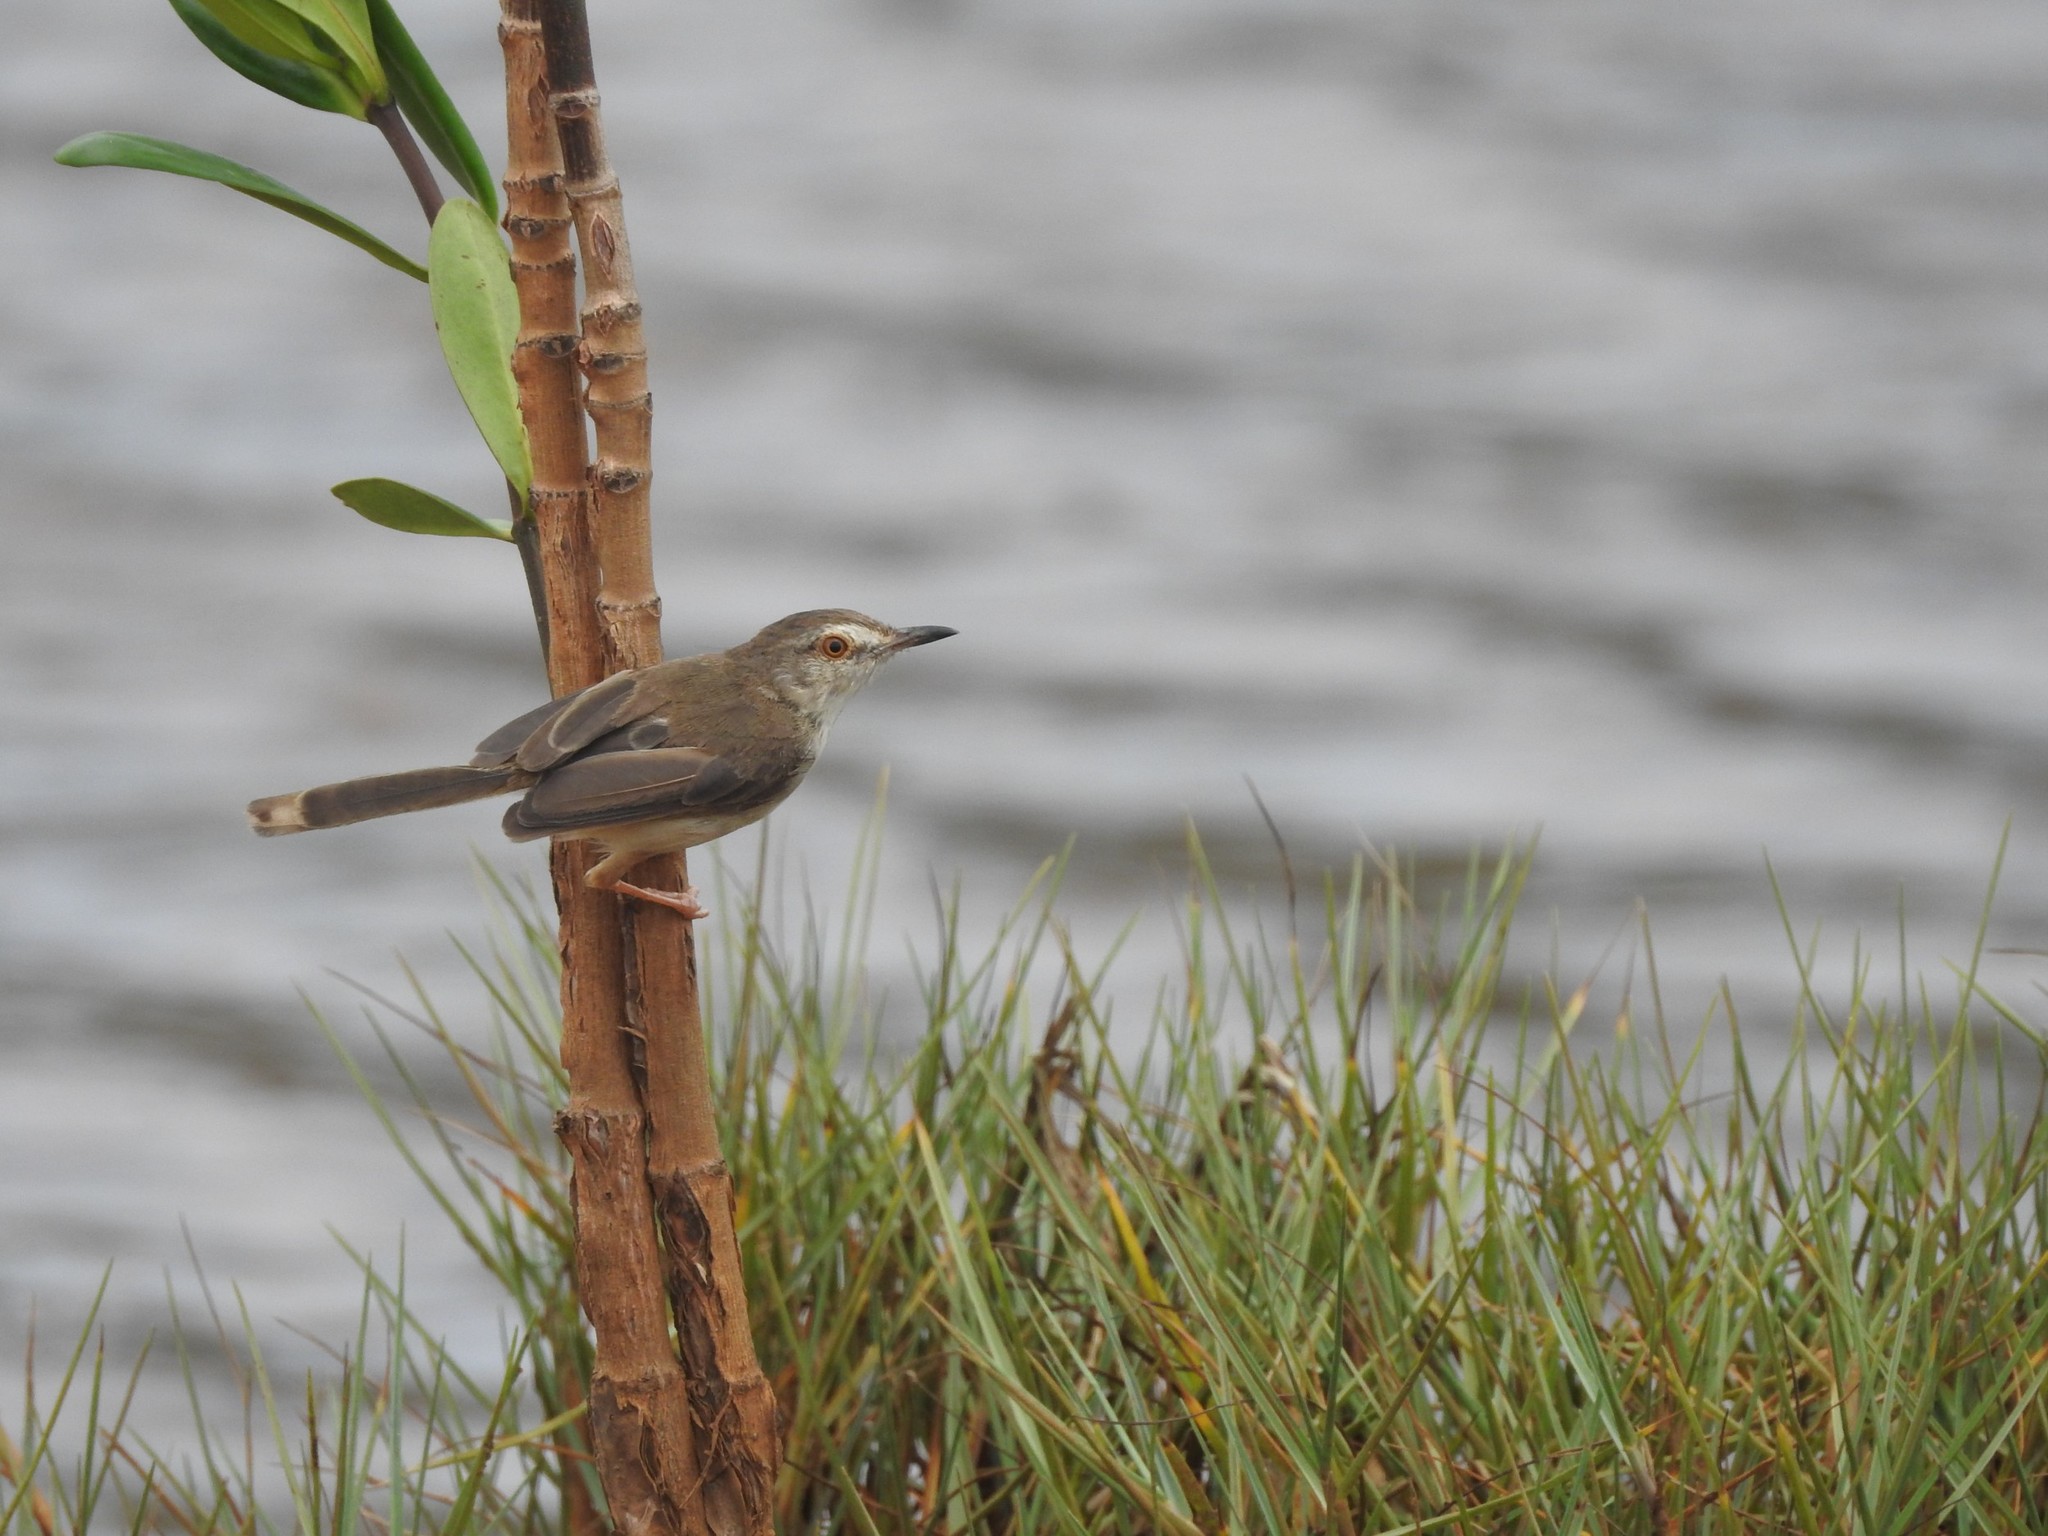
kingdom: Animalia
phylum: Chordata
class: Aves
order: Passeriformes
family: Cisticolidae
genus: Prinia
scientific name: Prinia inornata
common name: Plain prinia
